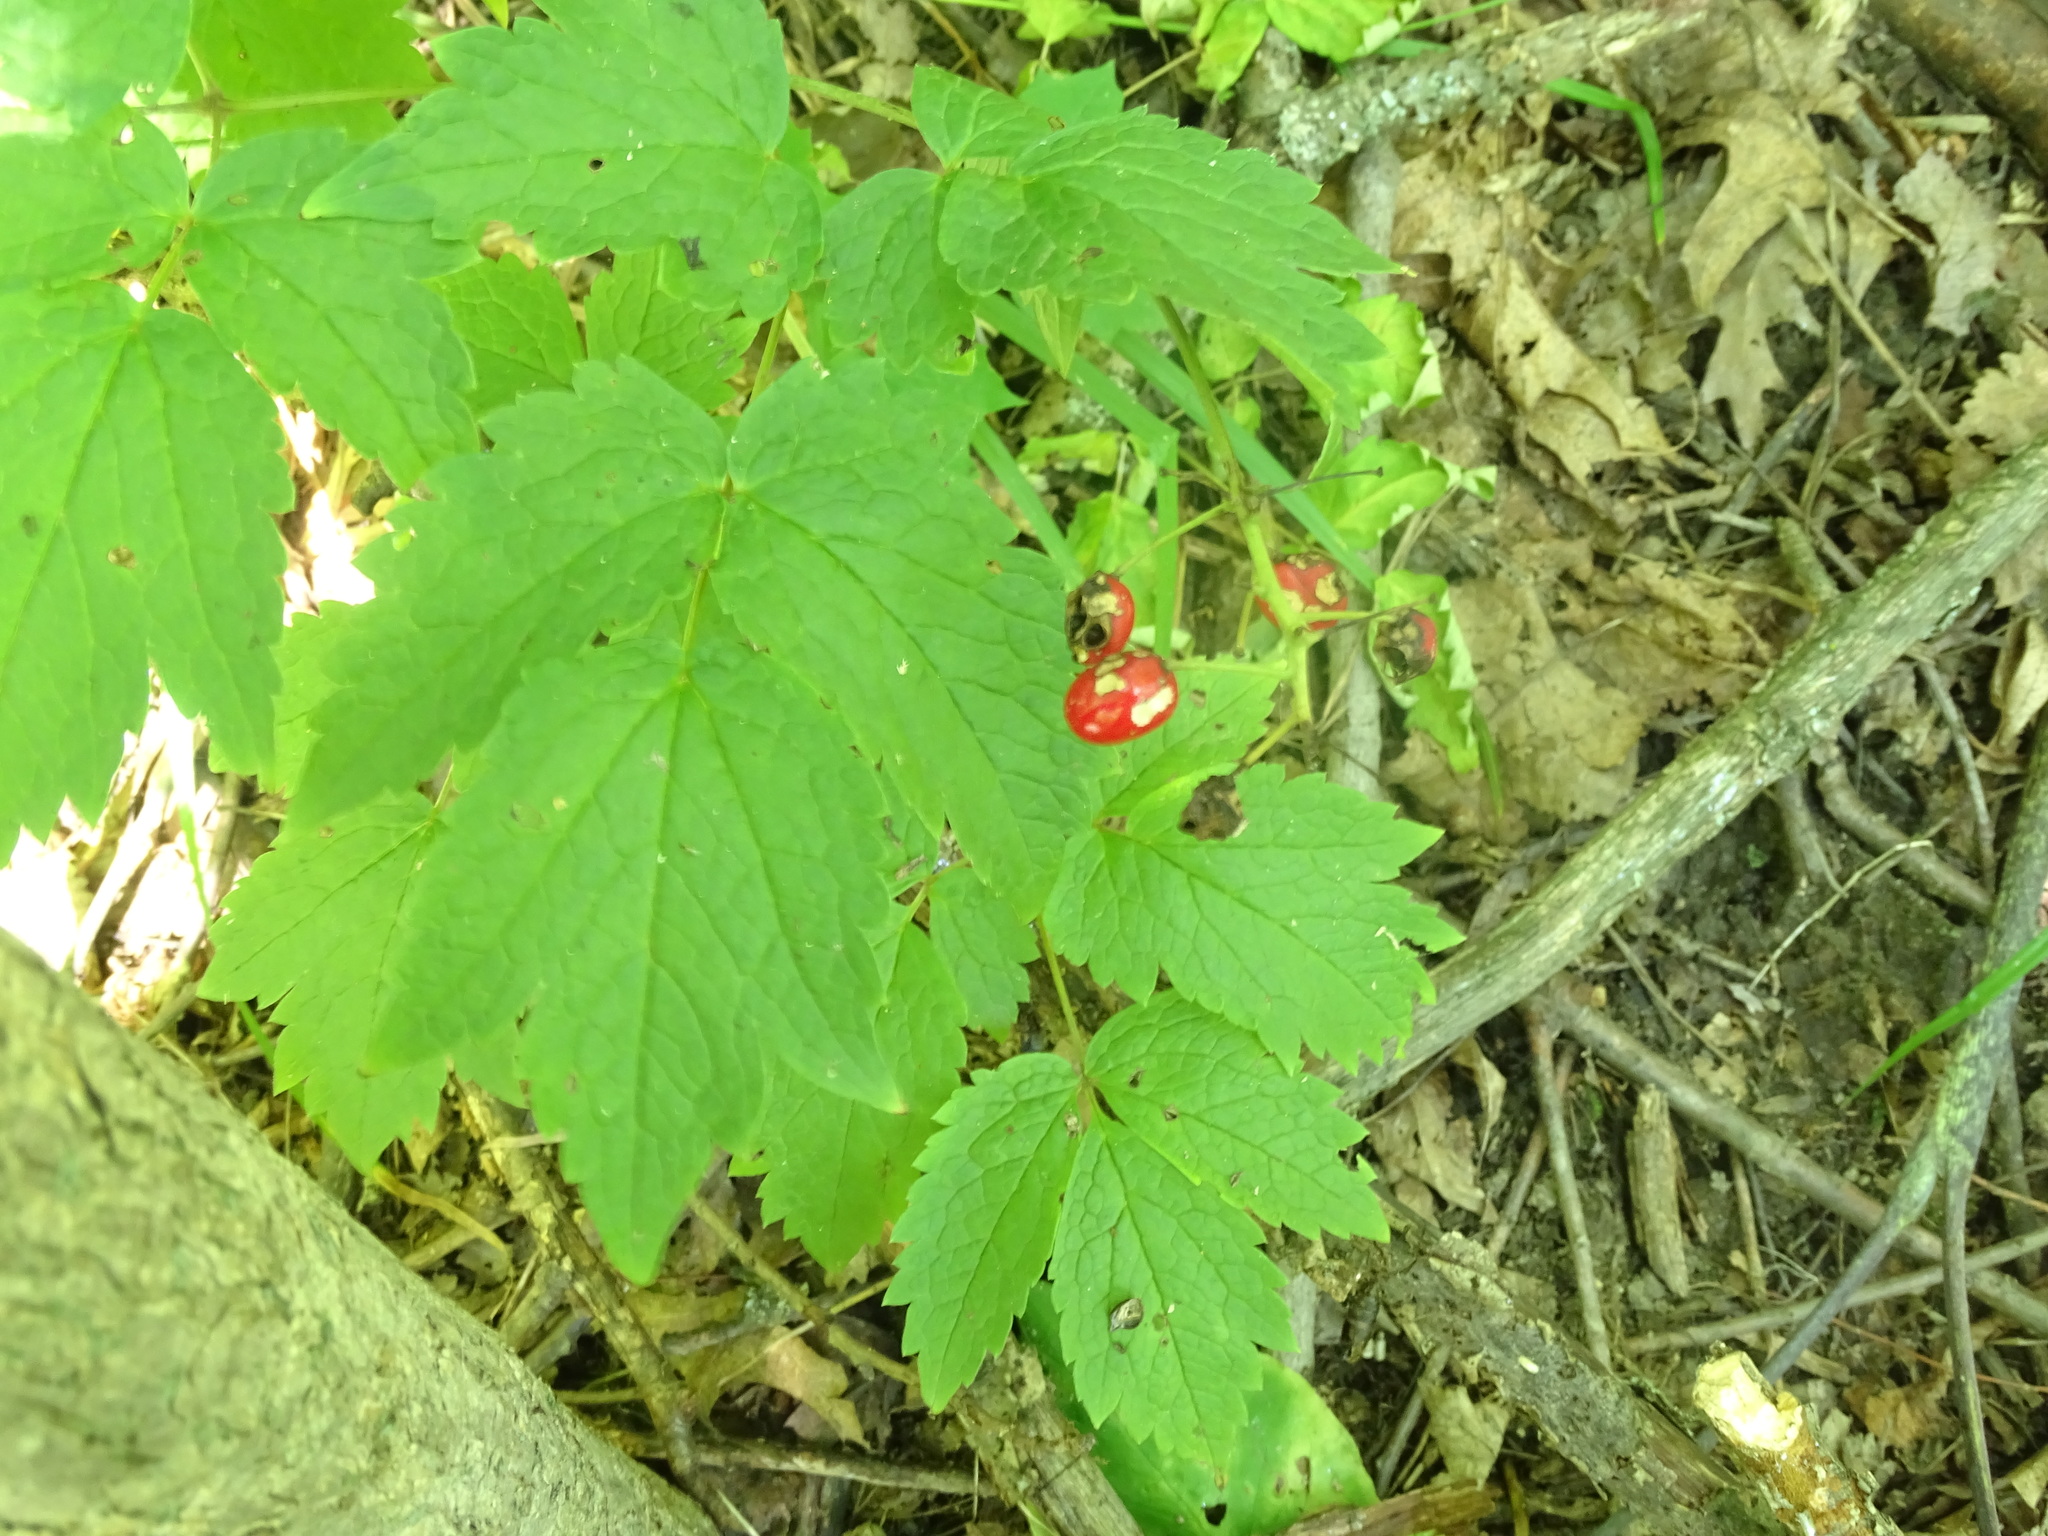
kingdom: Plantae
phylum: Tracheophyta
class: Magnoliopsida
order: Ranunculales
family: Ranunculaceae
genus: Actaea
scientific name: Actaea rubra
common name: Red baneberry
